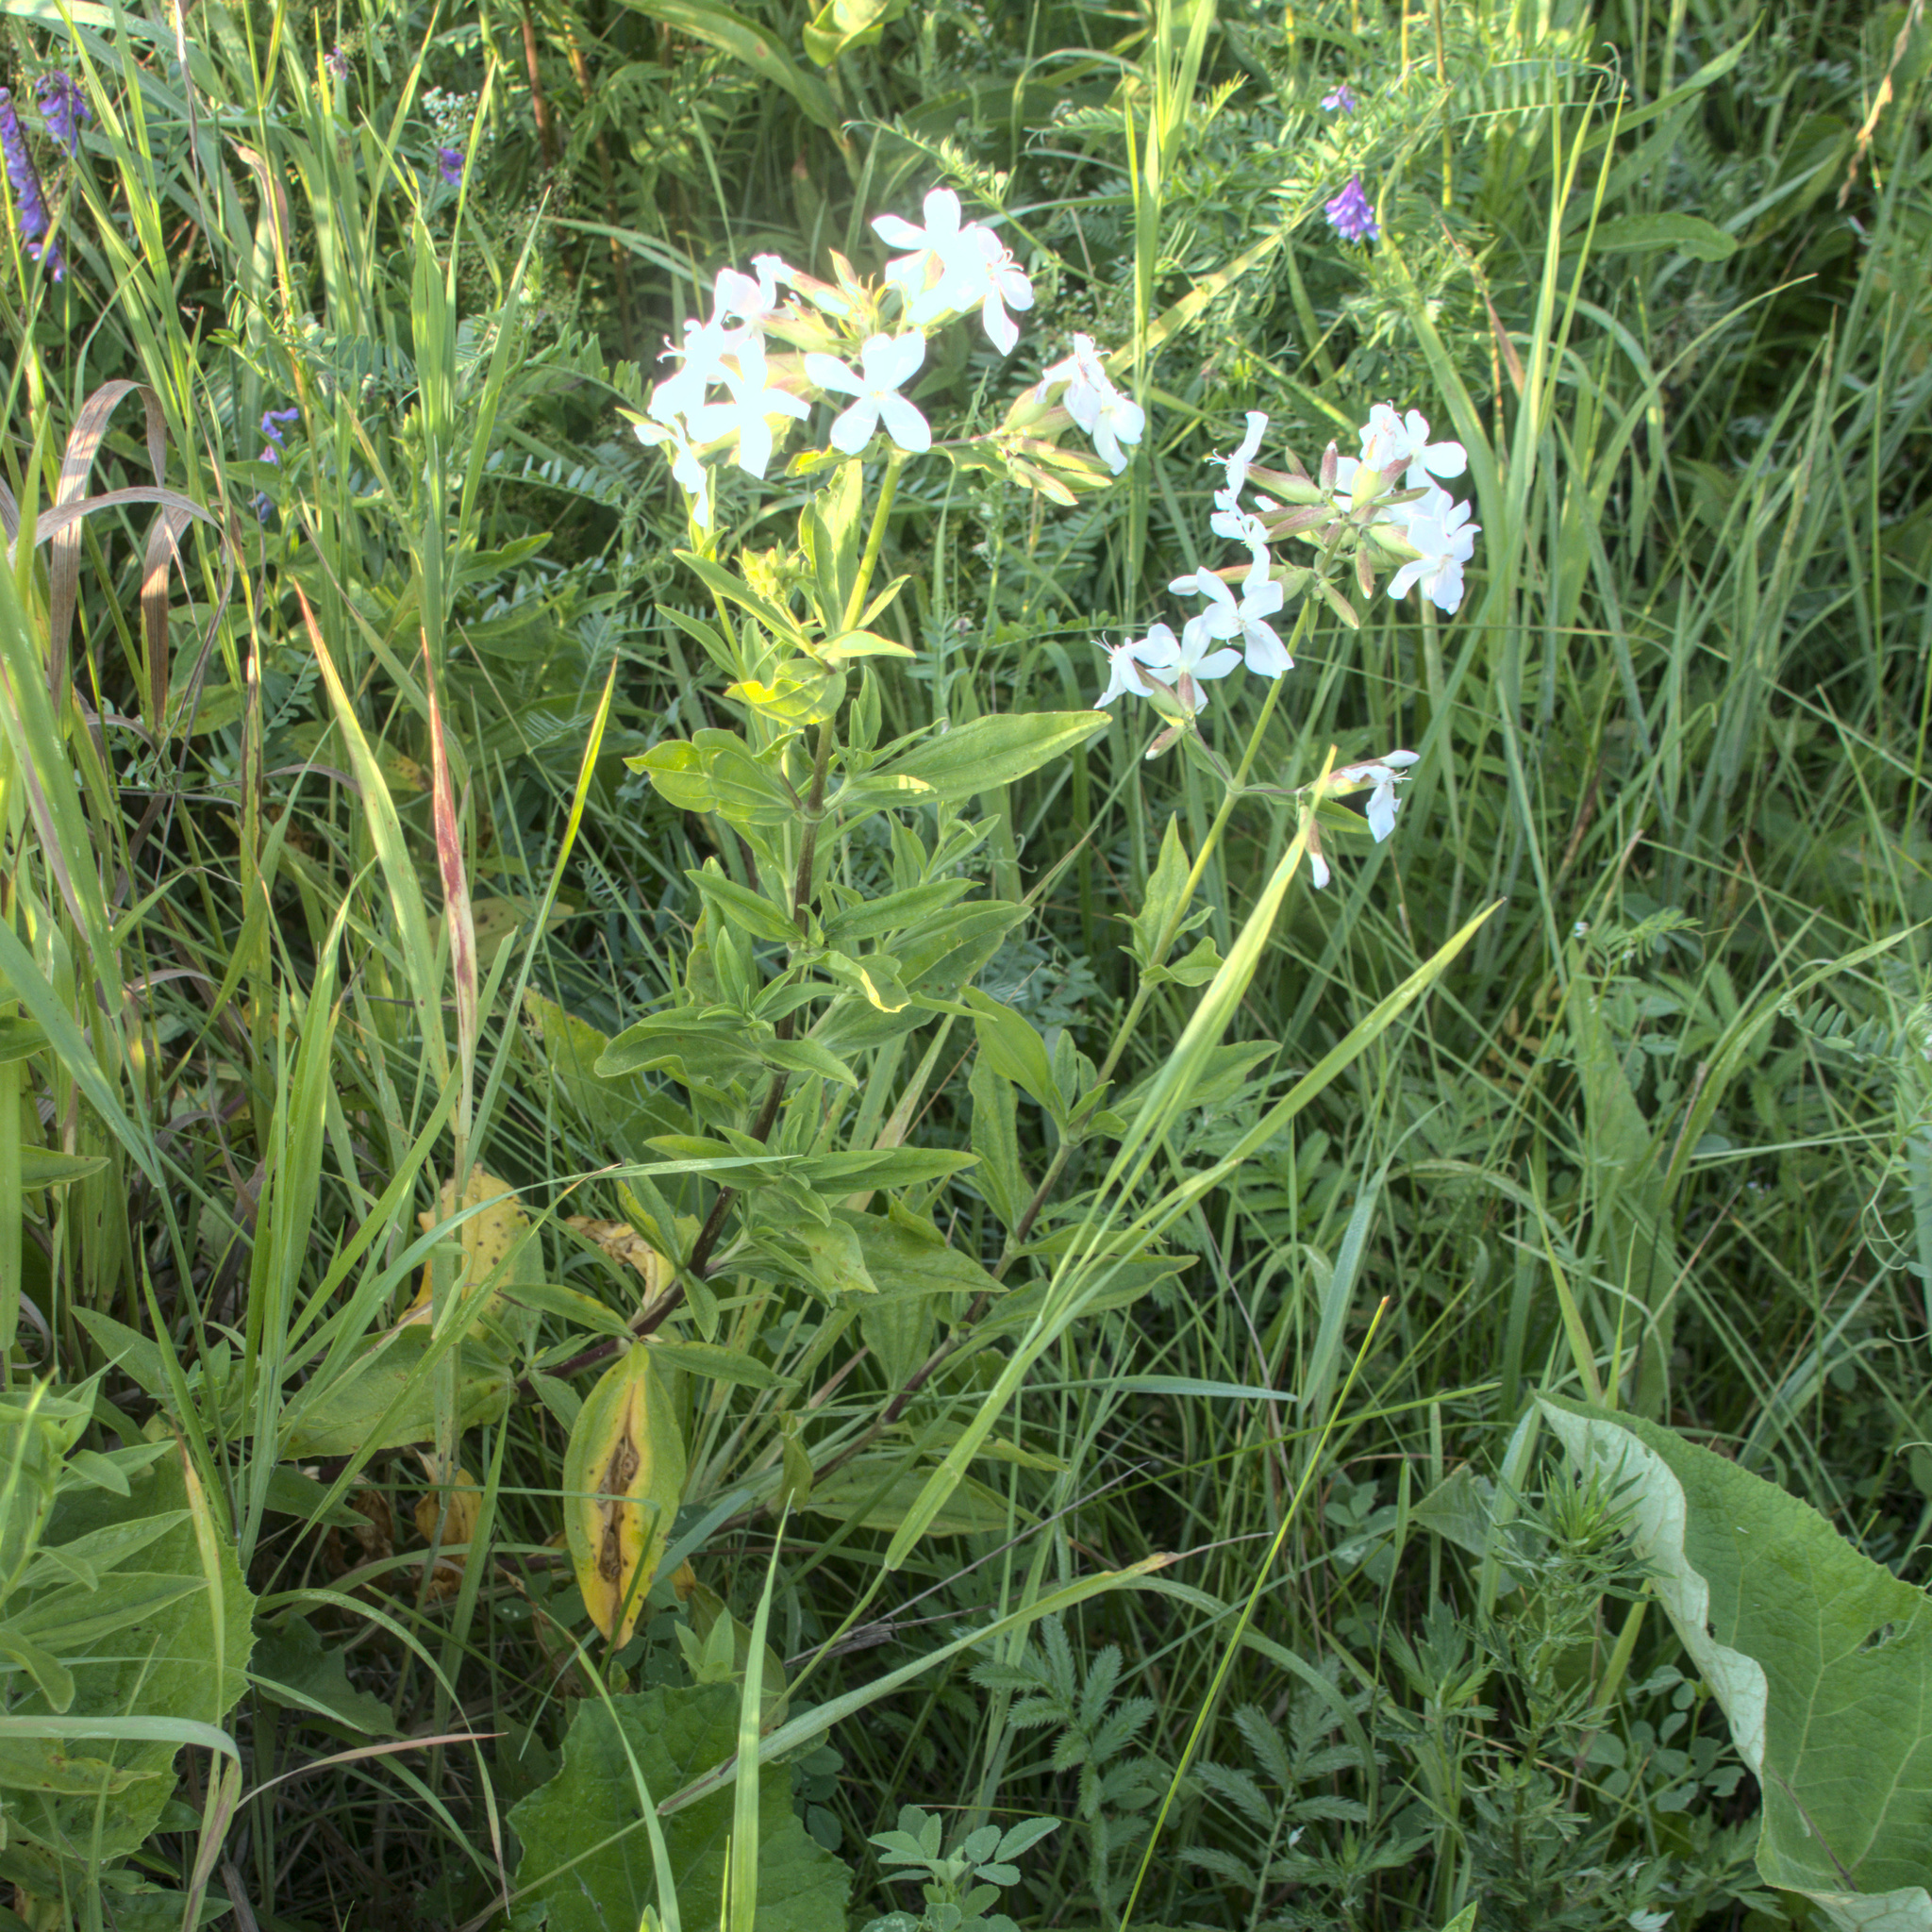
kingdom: Plantae
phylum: Tracheophyta
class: Magnoliopsida
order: Caryophyllales
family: Caryophyllaceae
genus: Saponaria
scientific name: Saponaria officinalis
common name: Soapwort
